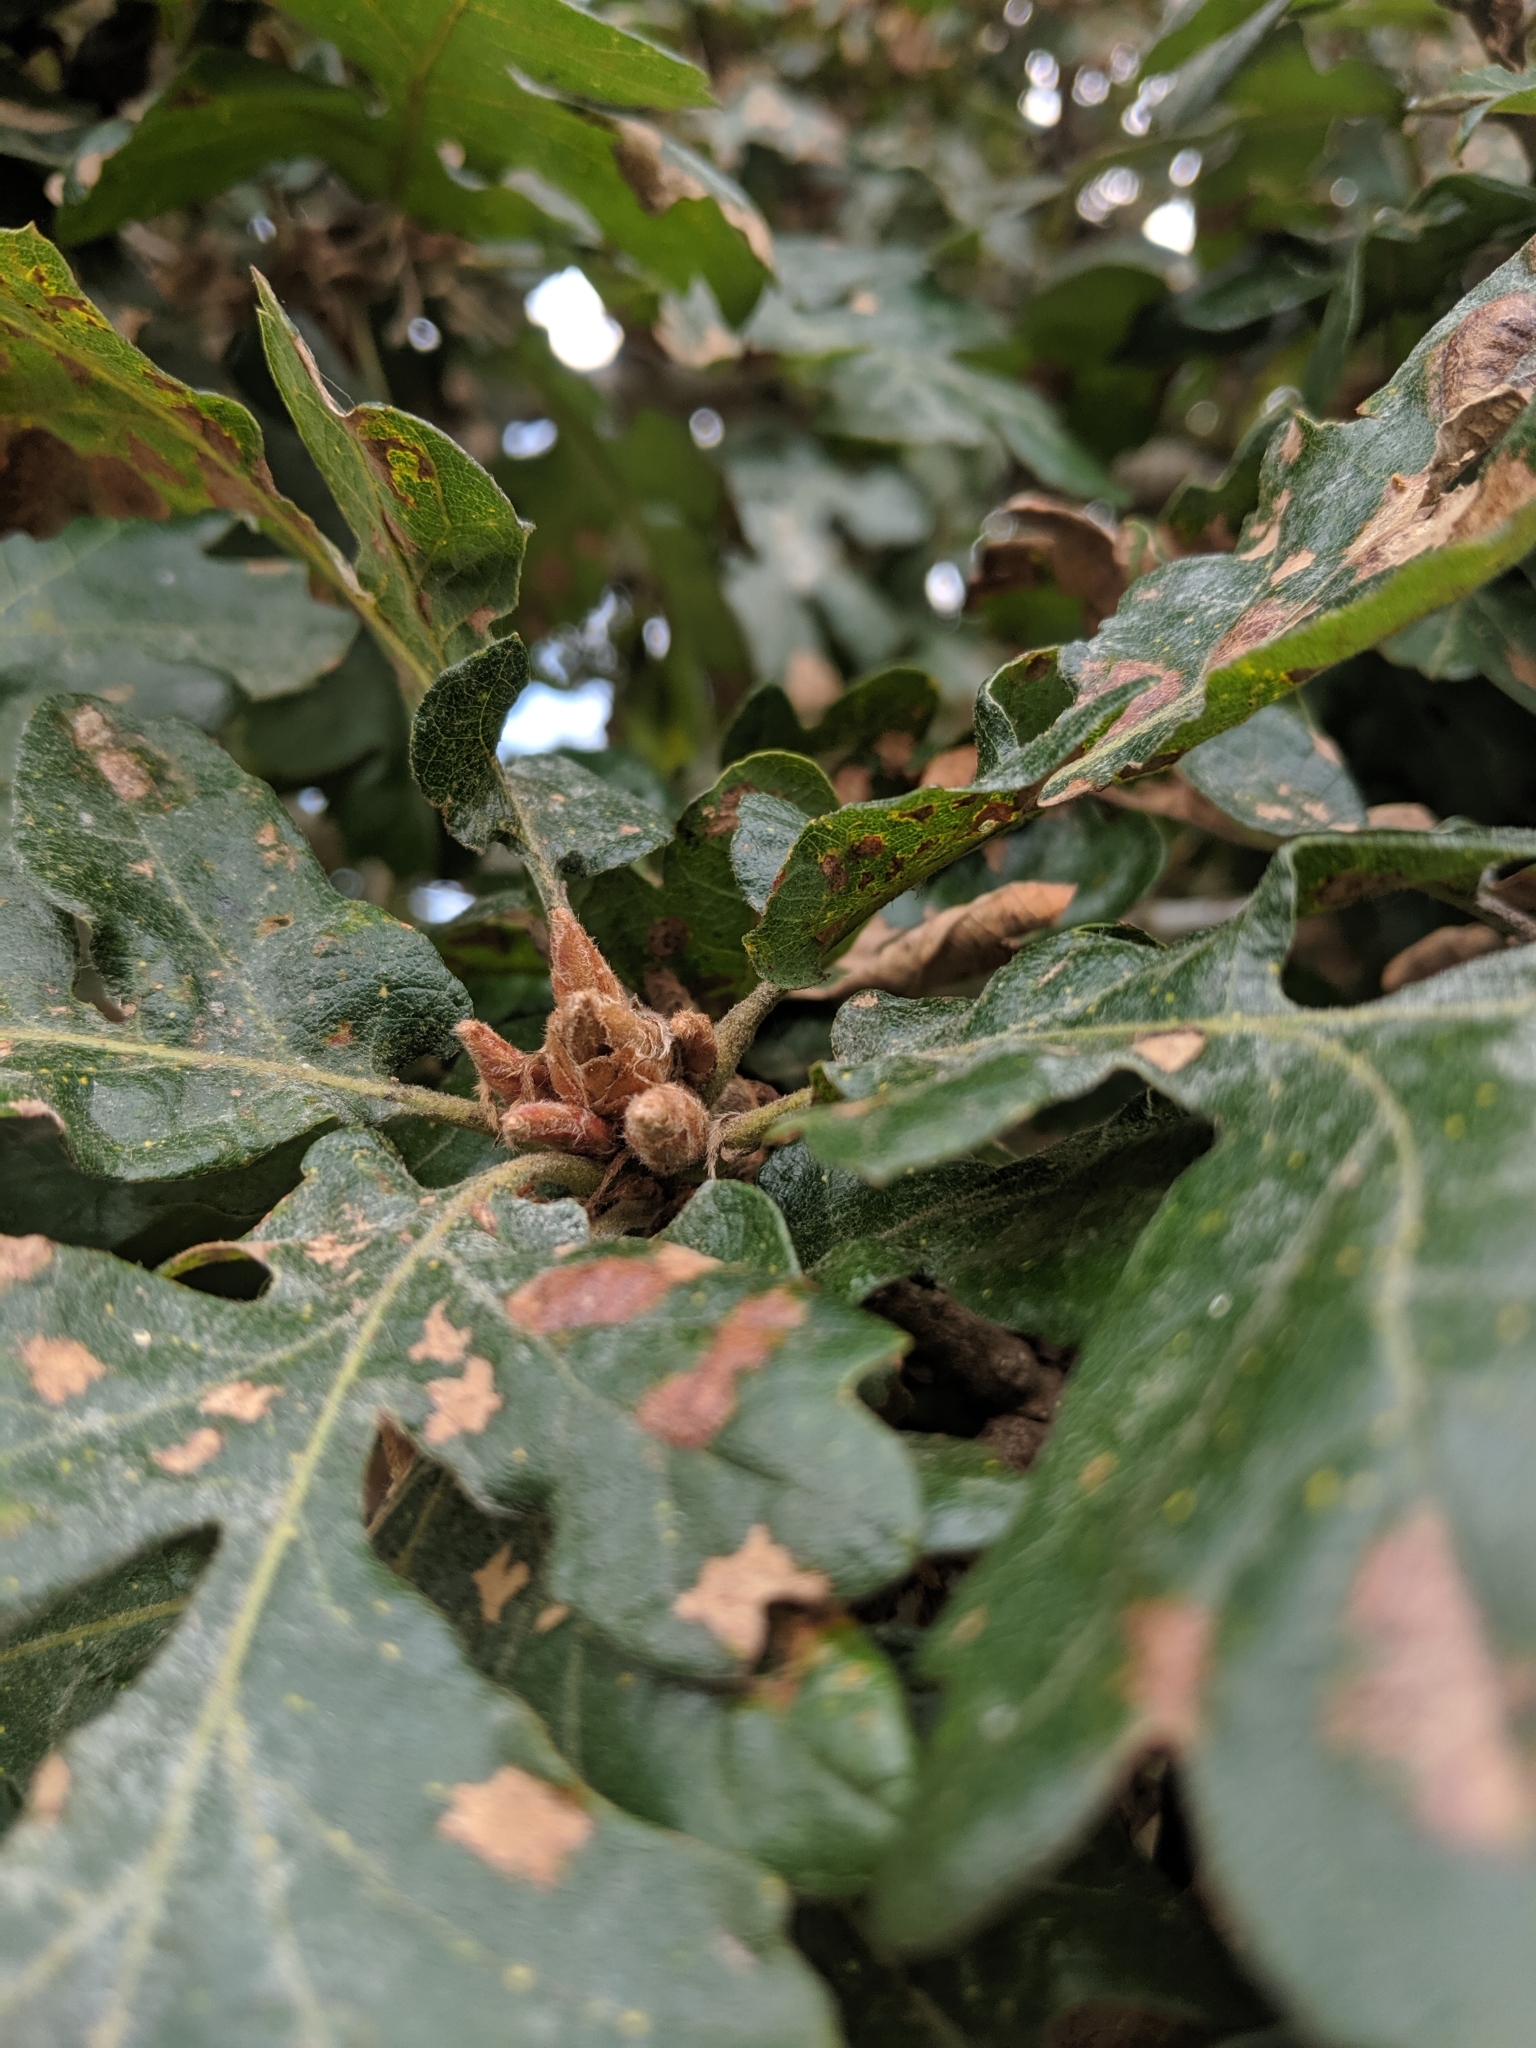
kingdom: Plantae
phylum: Tracheophyta
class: Magnoliopsida
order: Fagales
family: Fagaceae
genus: Quercus
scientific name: Quercus garryana
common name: Garry oak
